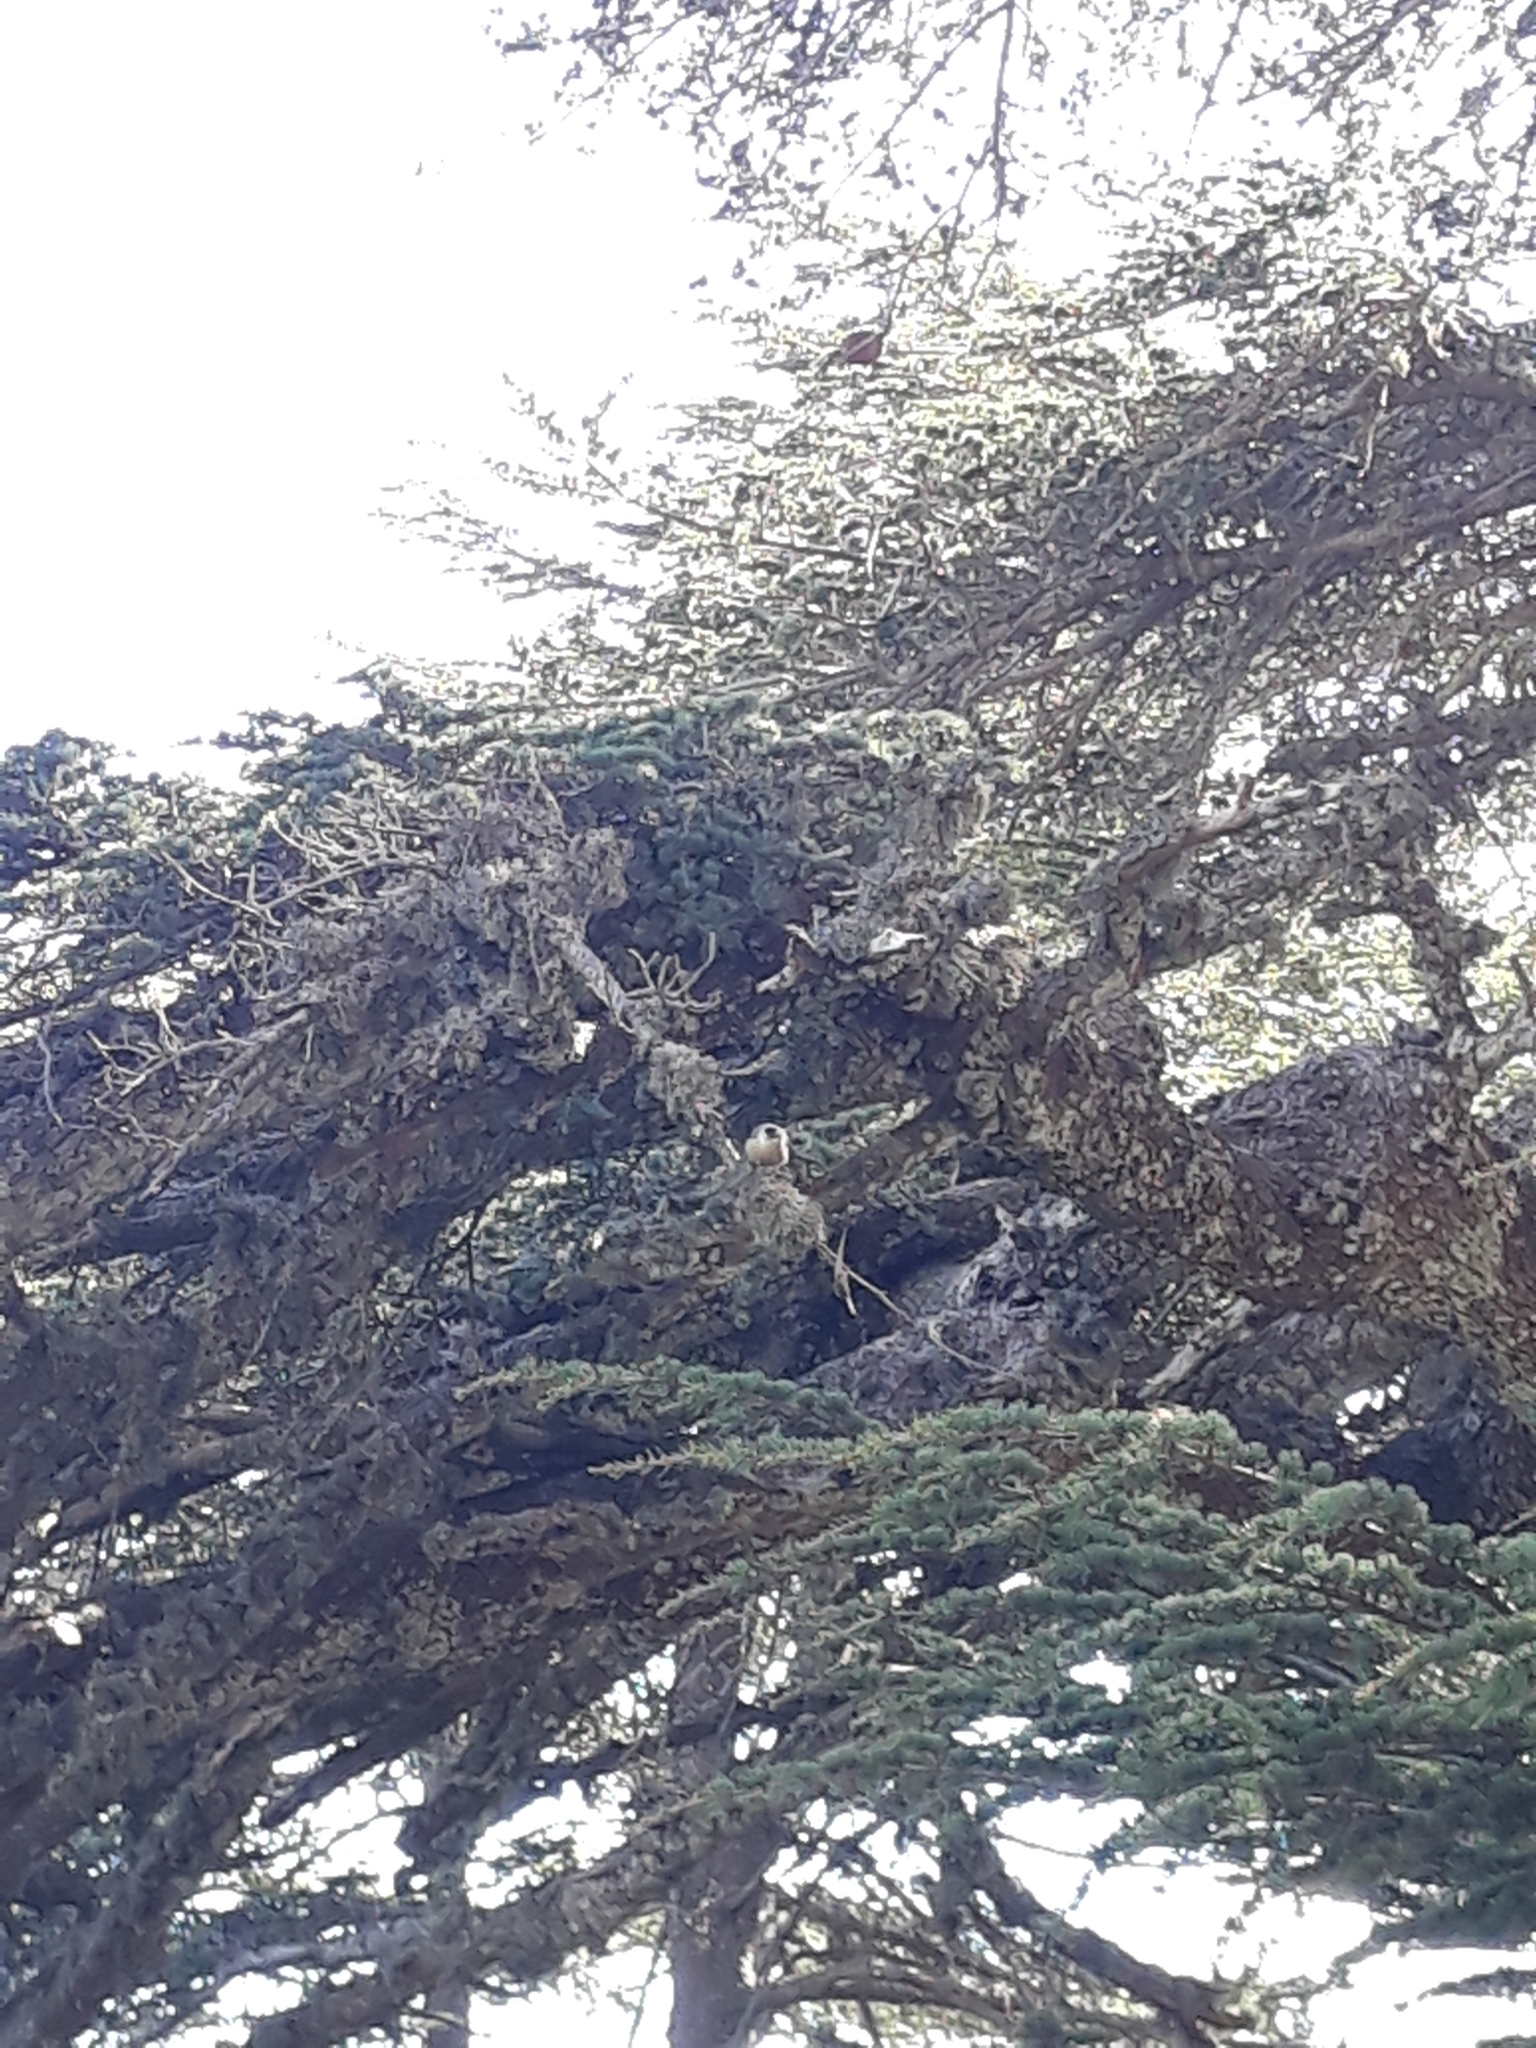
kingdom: Animalia
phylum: Chordata
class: Aves
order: Passeriformes
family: Sittidae
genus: Sitta
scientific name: Sitta ledanti
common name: Algerian nuthatch
